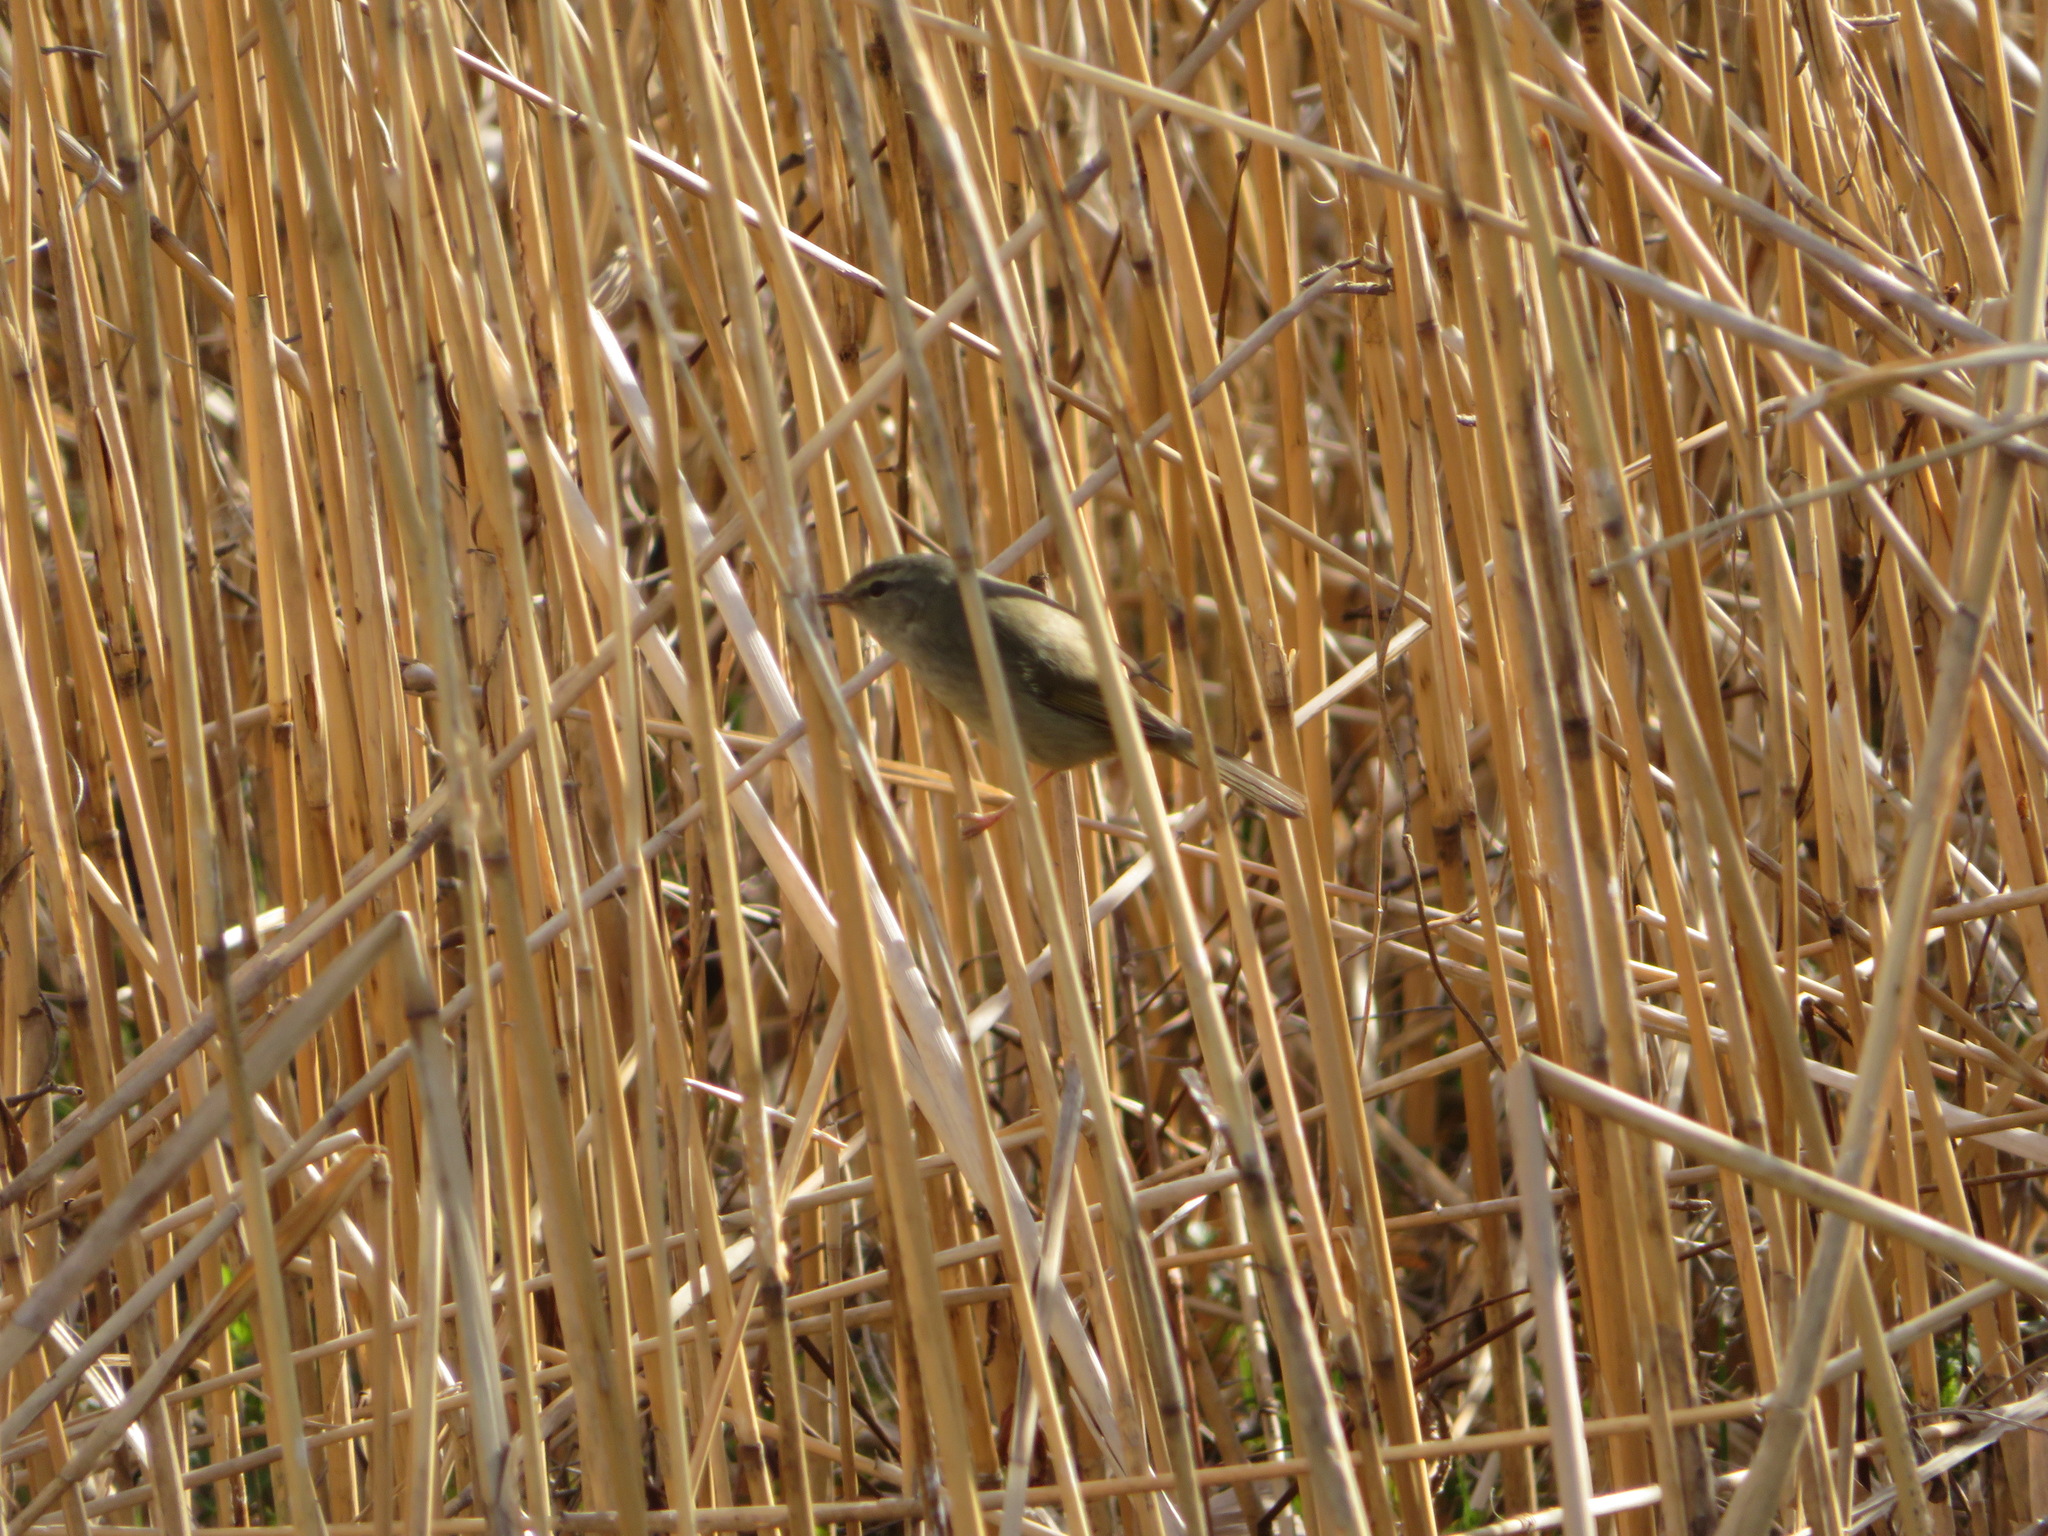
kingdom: Animalia
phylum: Chordata
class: Aves
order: Passeriformes
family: Cettiidae
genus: Horornis
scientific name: Horornis diphone
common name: Japanese bush warbler
